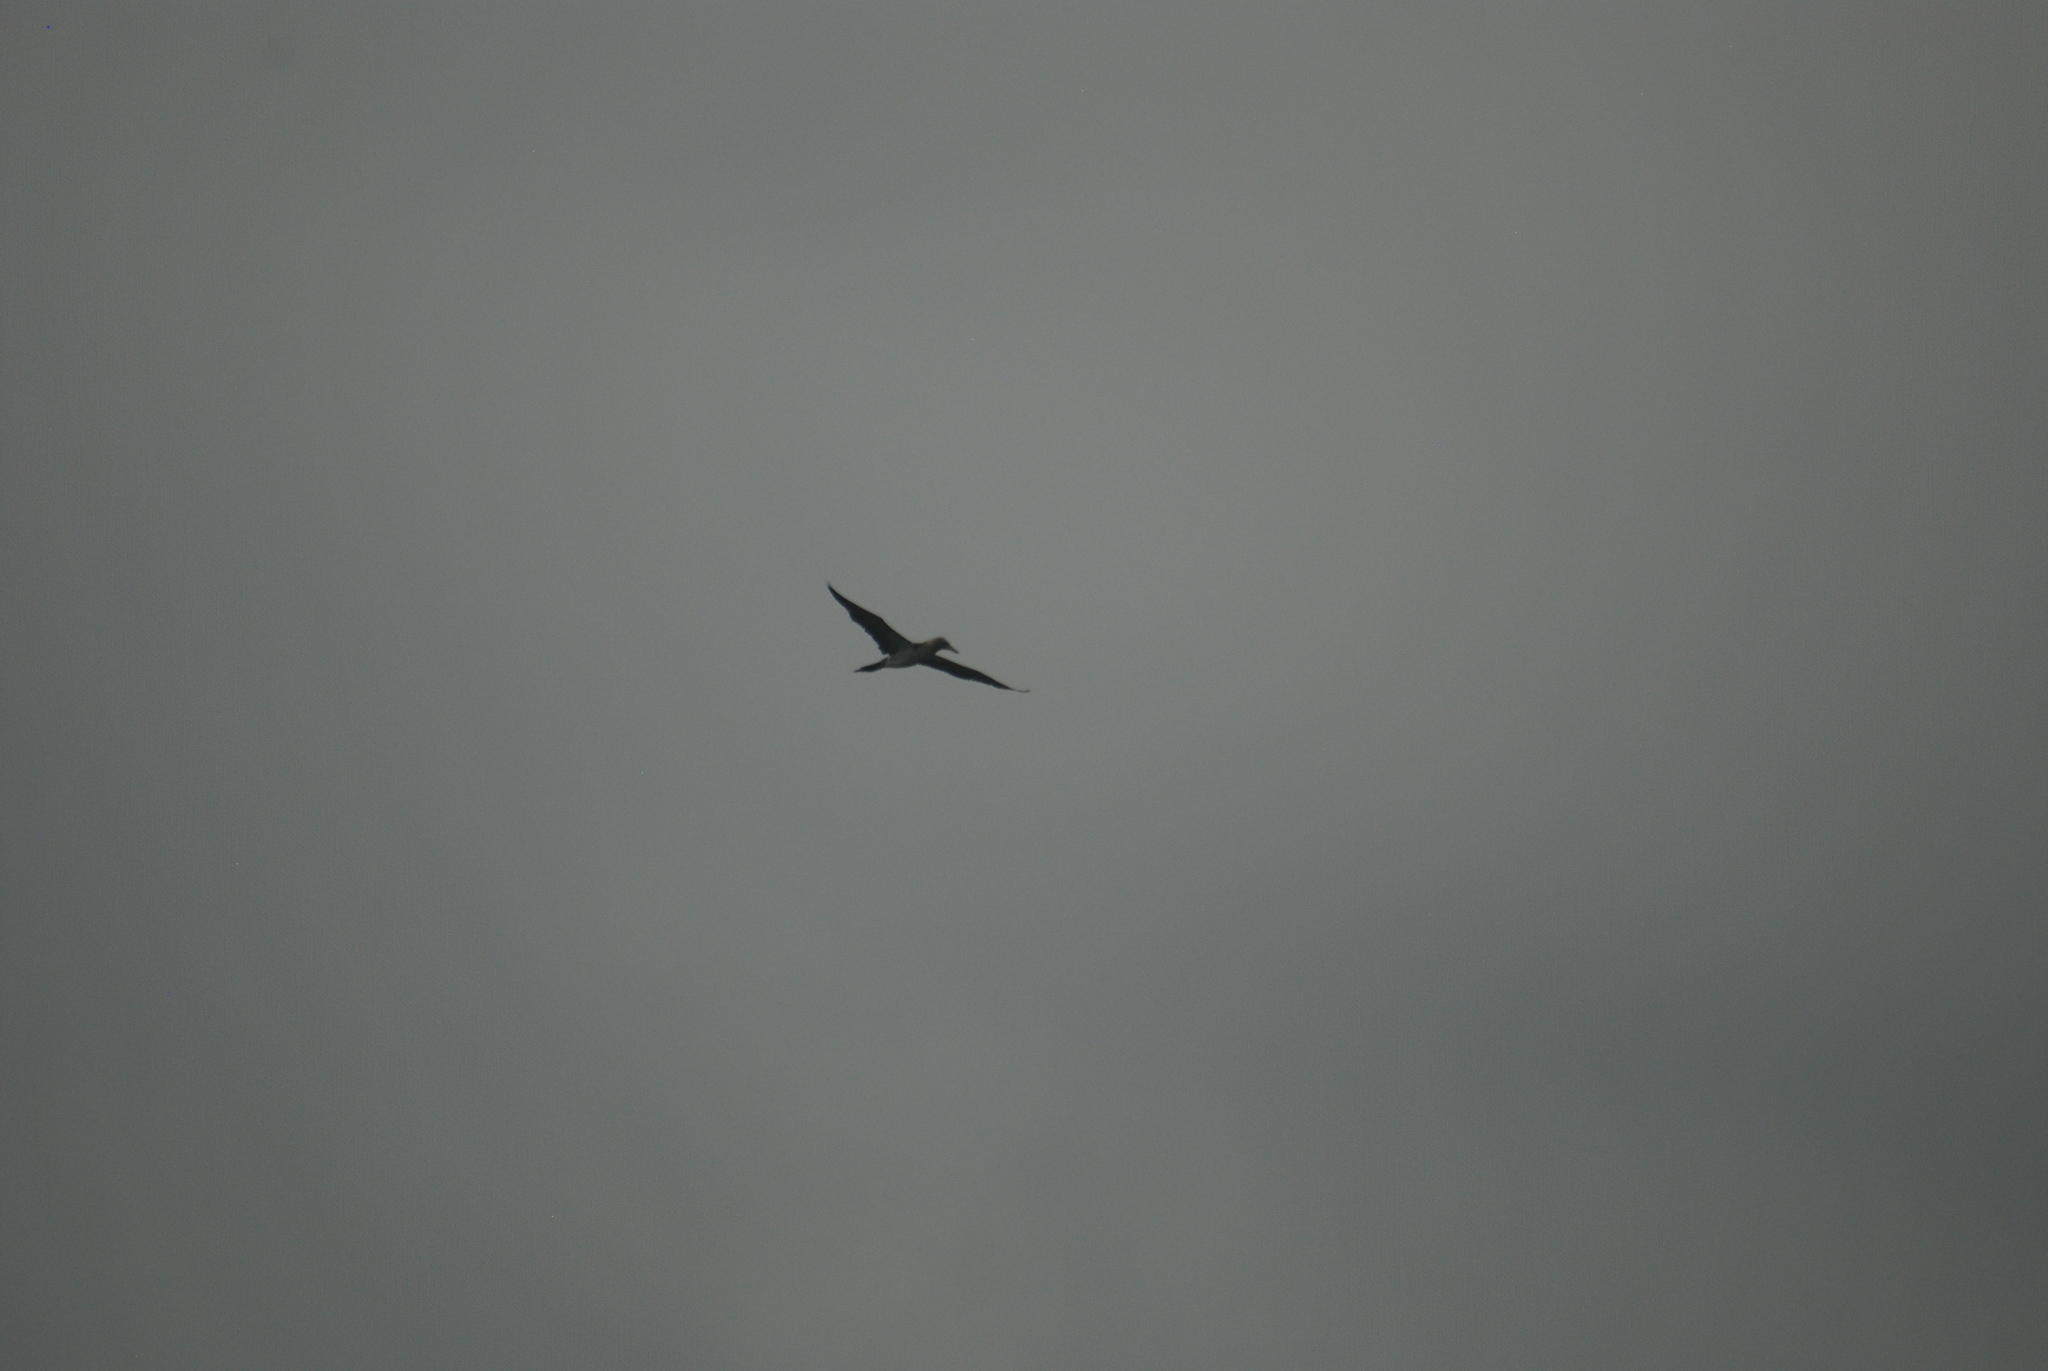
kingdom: Animalia
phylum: Chordata
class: Aves
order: Suliformes
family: Sulidae
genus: Sula
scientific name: Sula nebouxii
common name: Blue-footed booby
